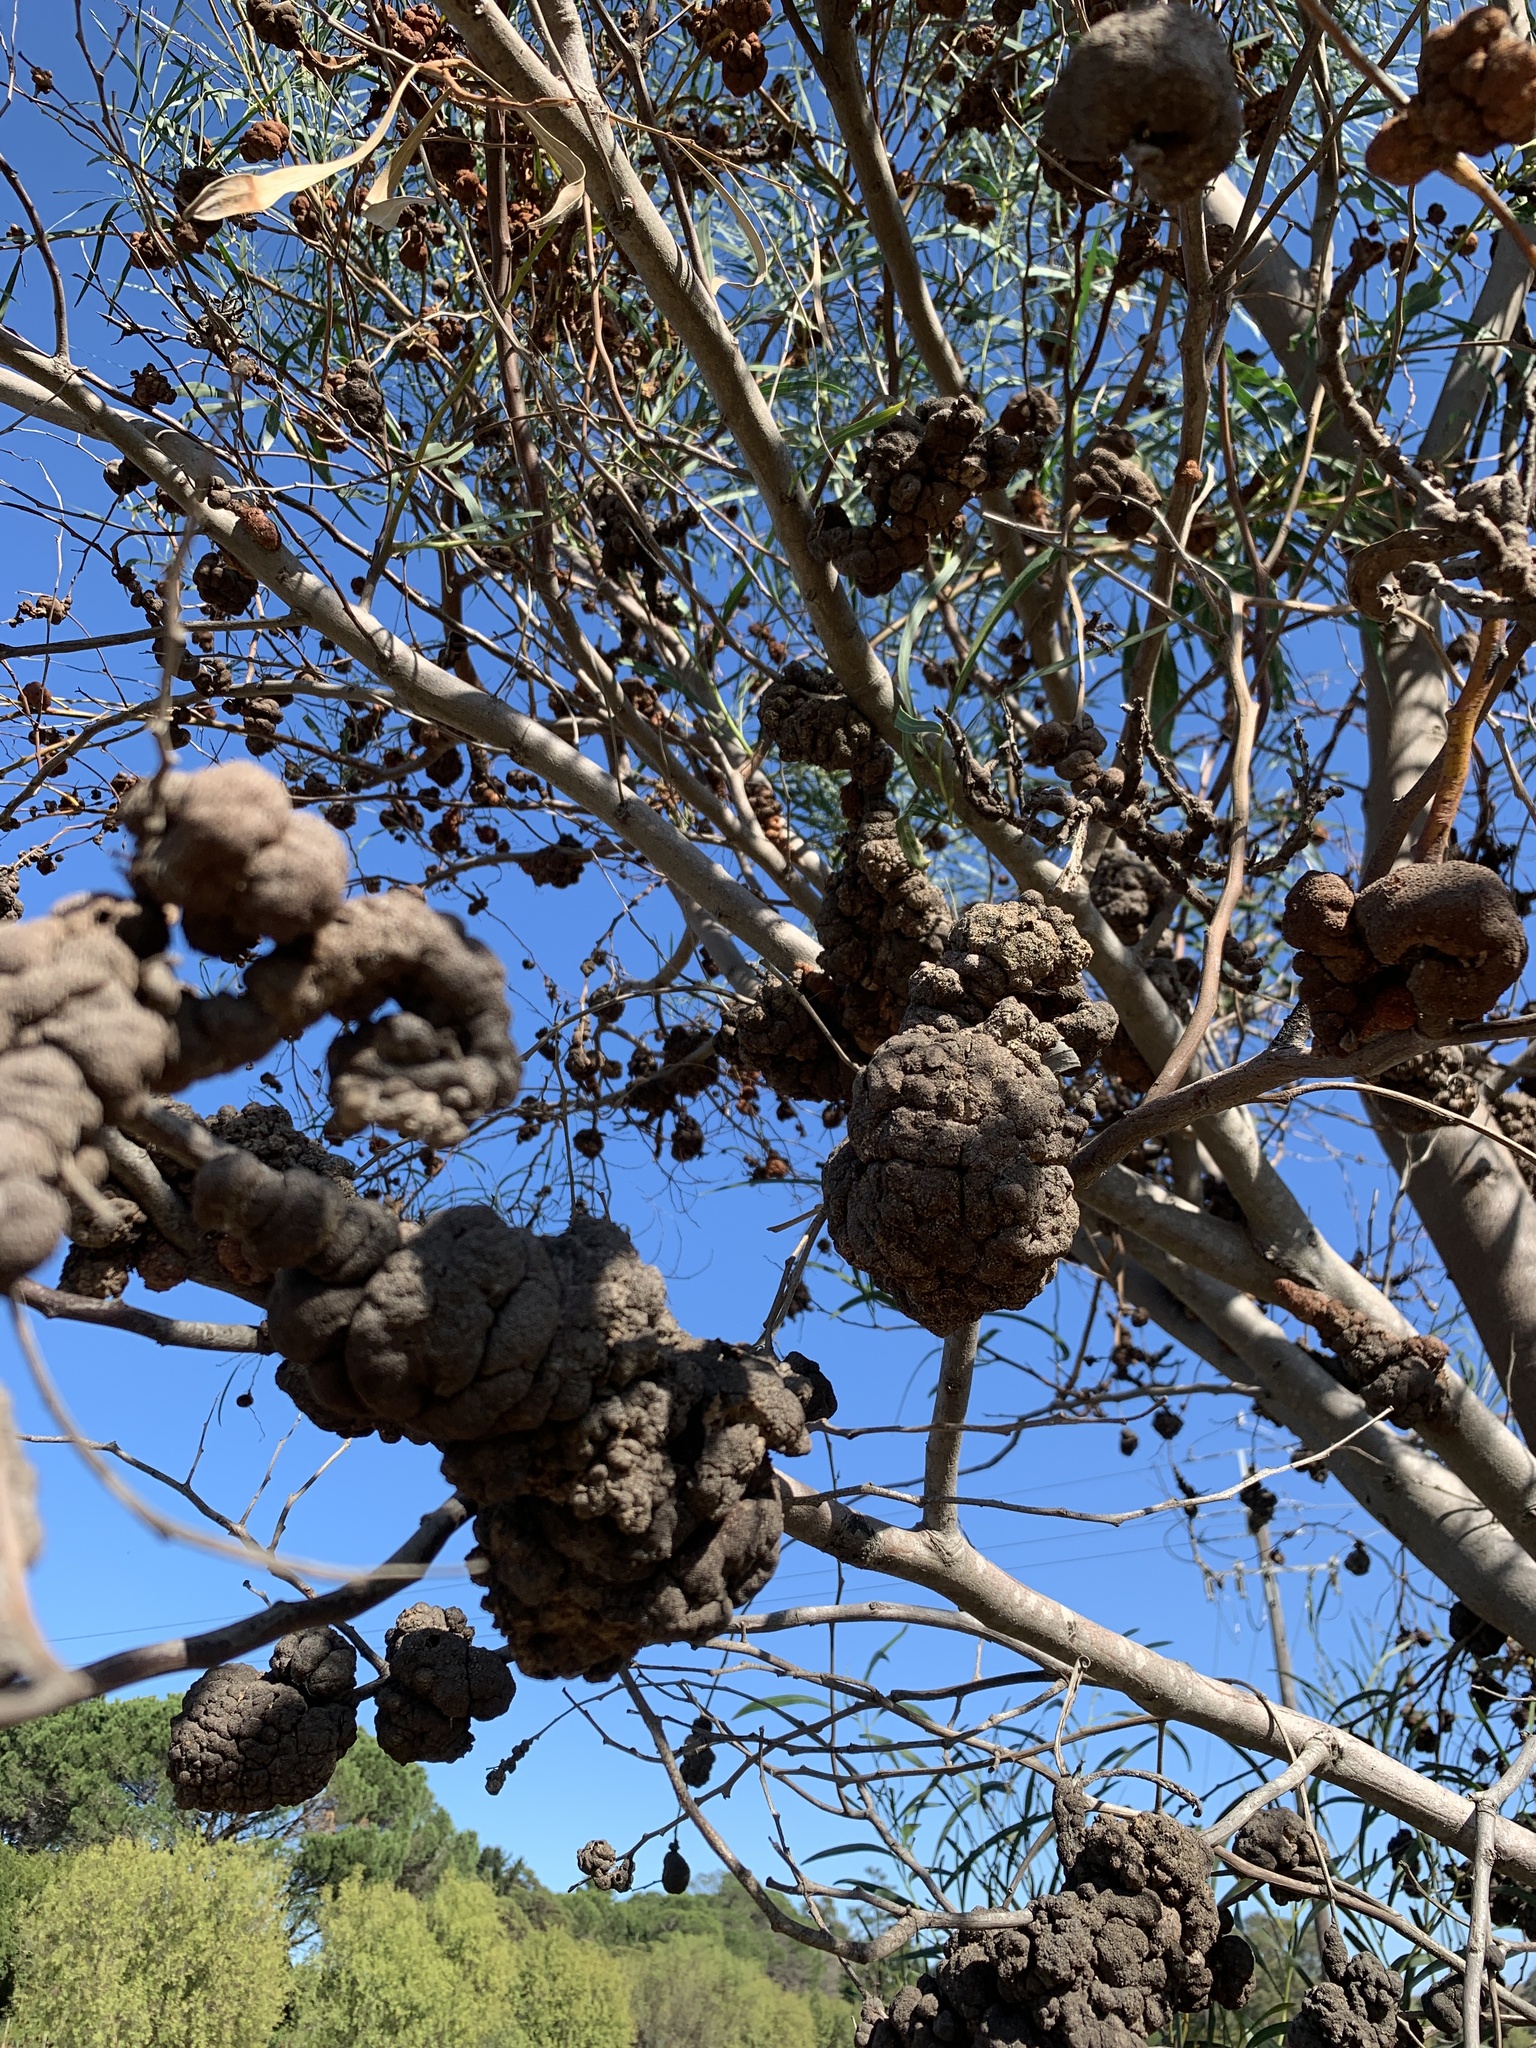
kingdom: Plantae
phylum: Tracheophyta
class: Magnoliopsida
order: Fabales
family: Fabaceae
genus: Acacia
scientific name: Acacia saligna
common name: Orange wattle
